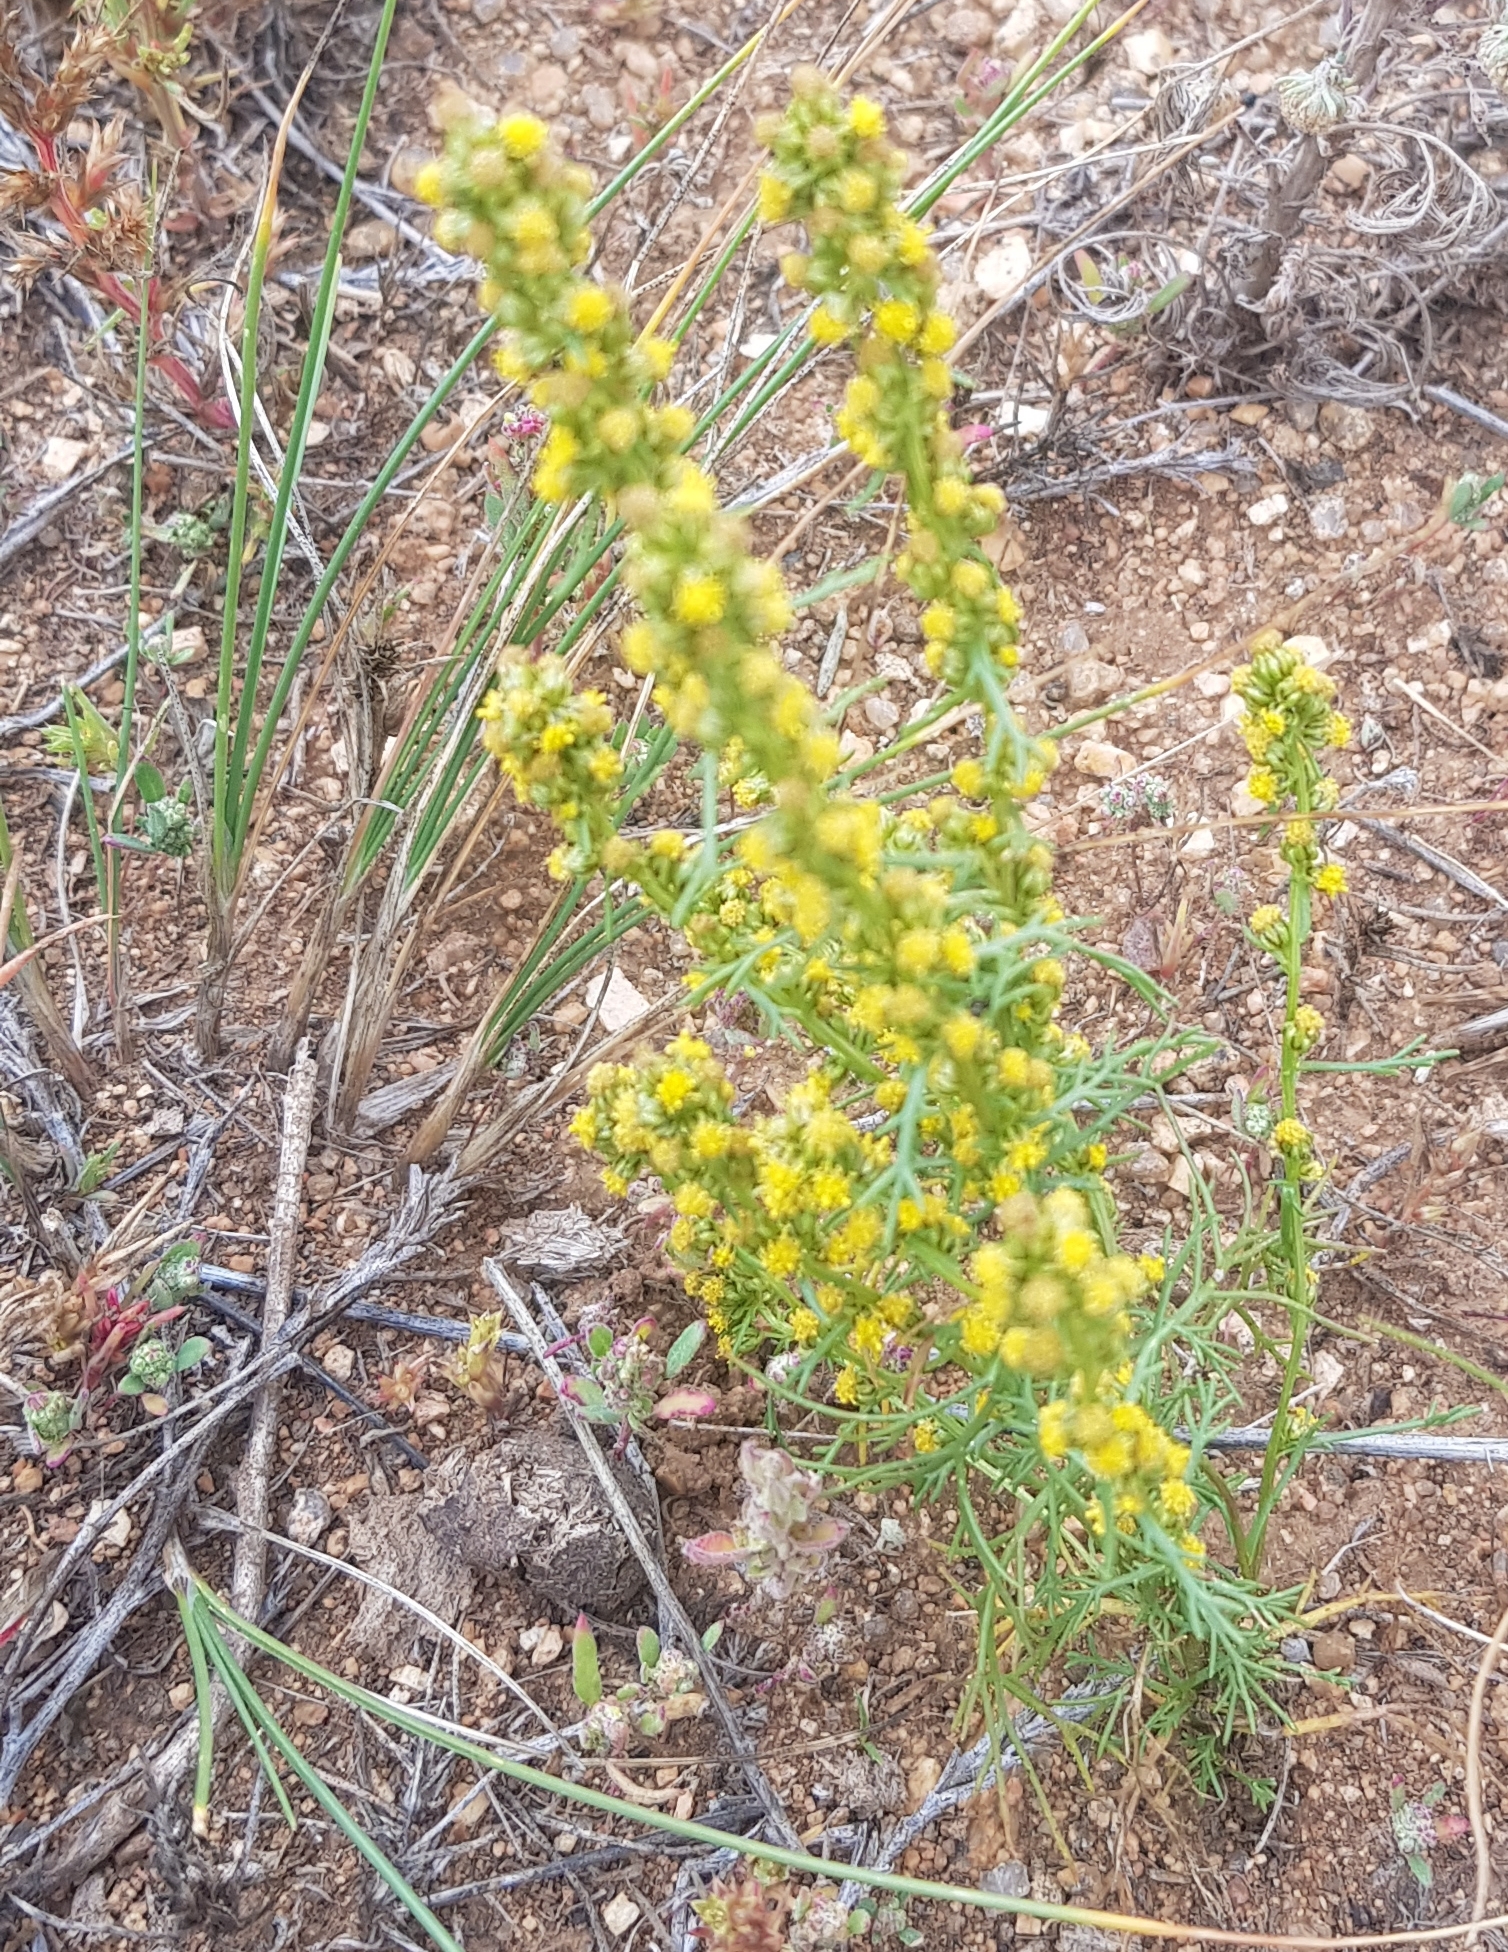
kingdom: Plantae
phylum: Tracheophyta
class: Magnoliopsida
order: Asterales
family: Asteraceae
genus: Artemisia
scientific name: Artemisia palustris
